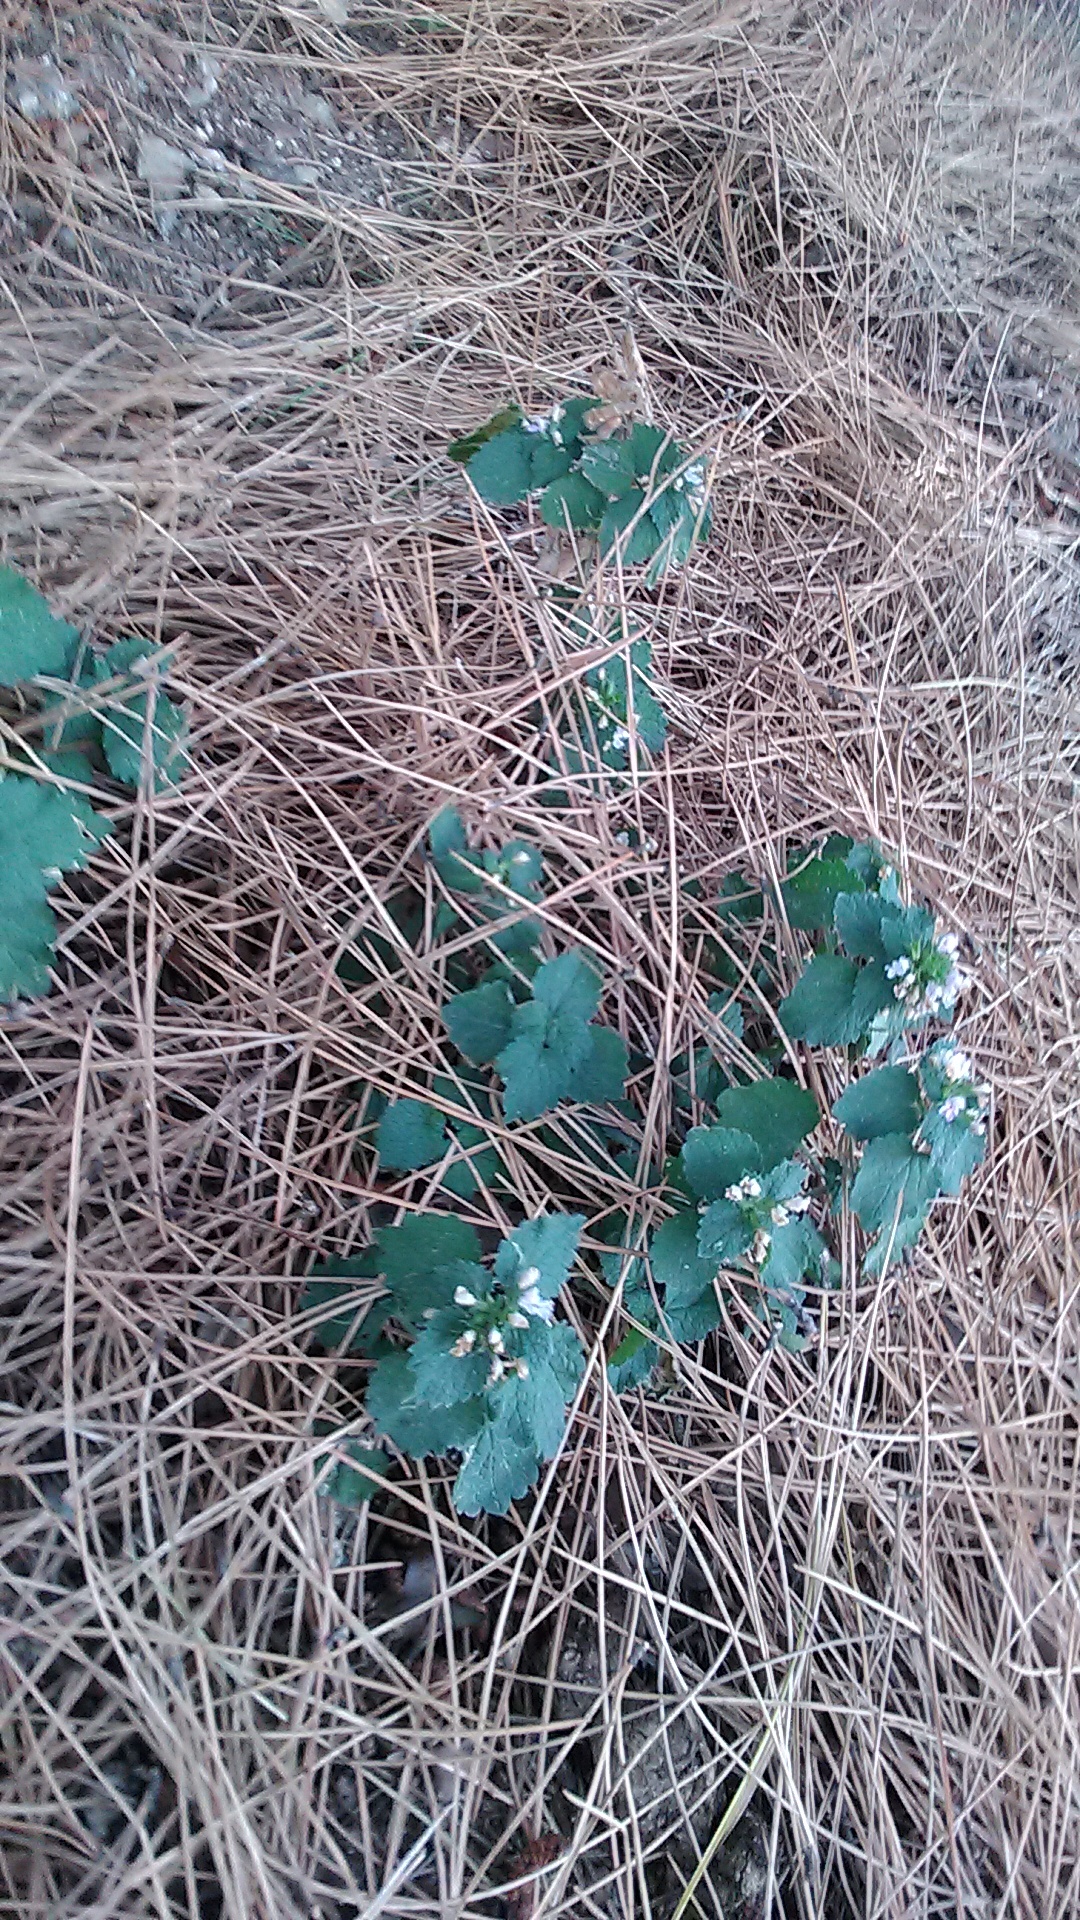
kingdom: Plantae
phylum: Tracheophyta
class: Magnoliopsida
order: Lamiales
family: Lamiaceae
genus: Ballota
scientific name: Ballota nigra
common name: Black horehound
